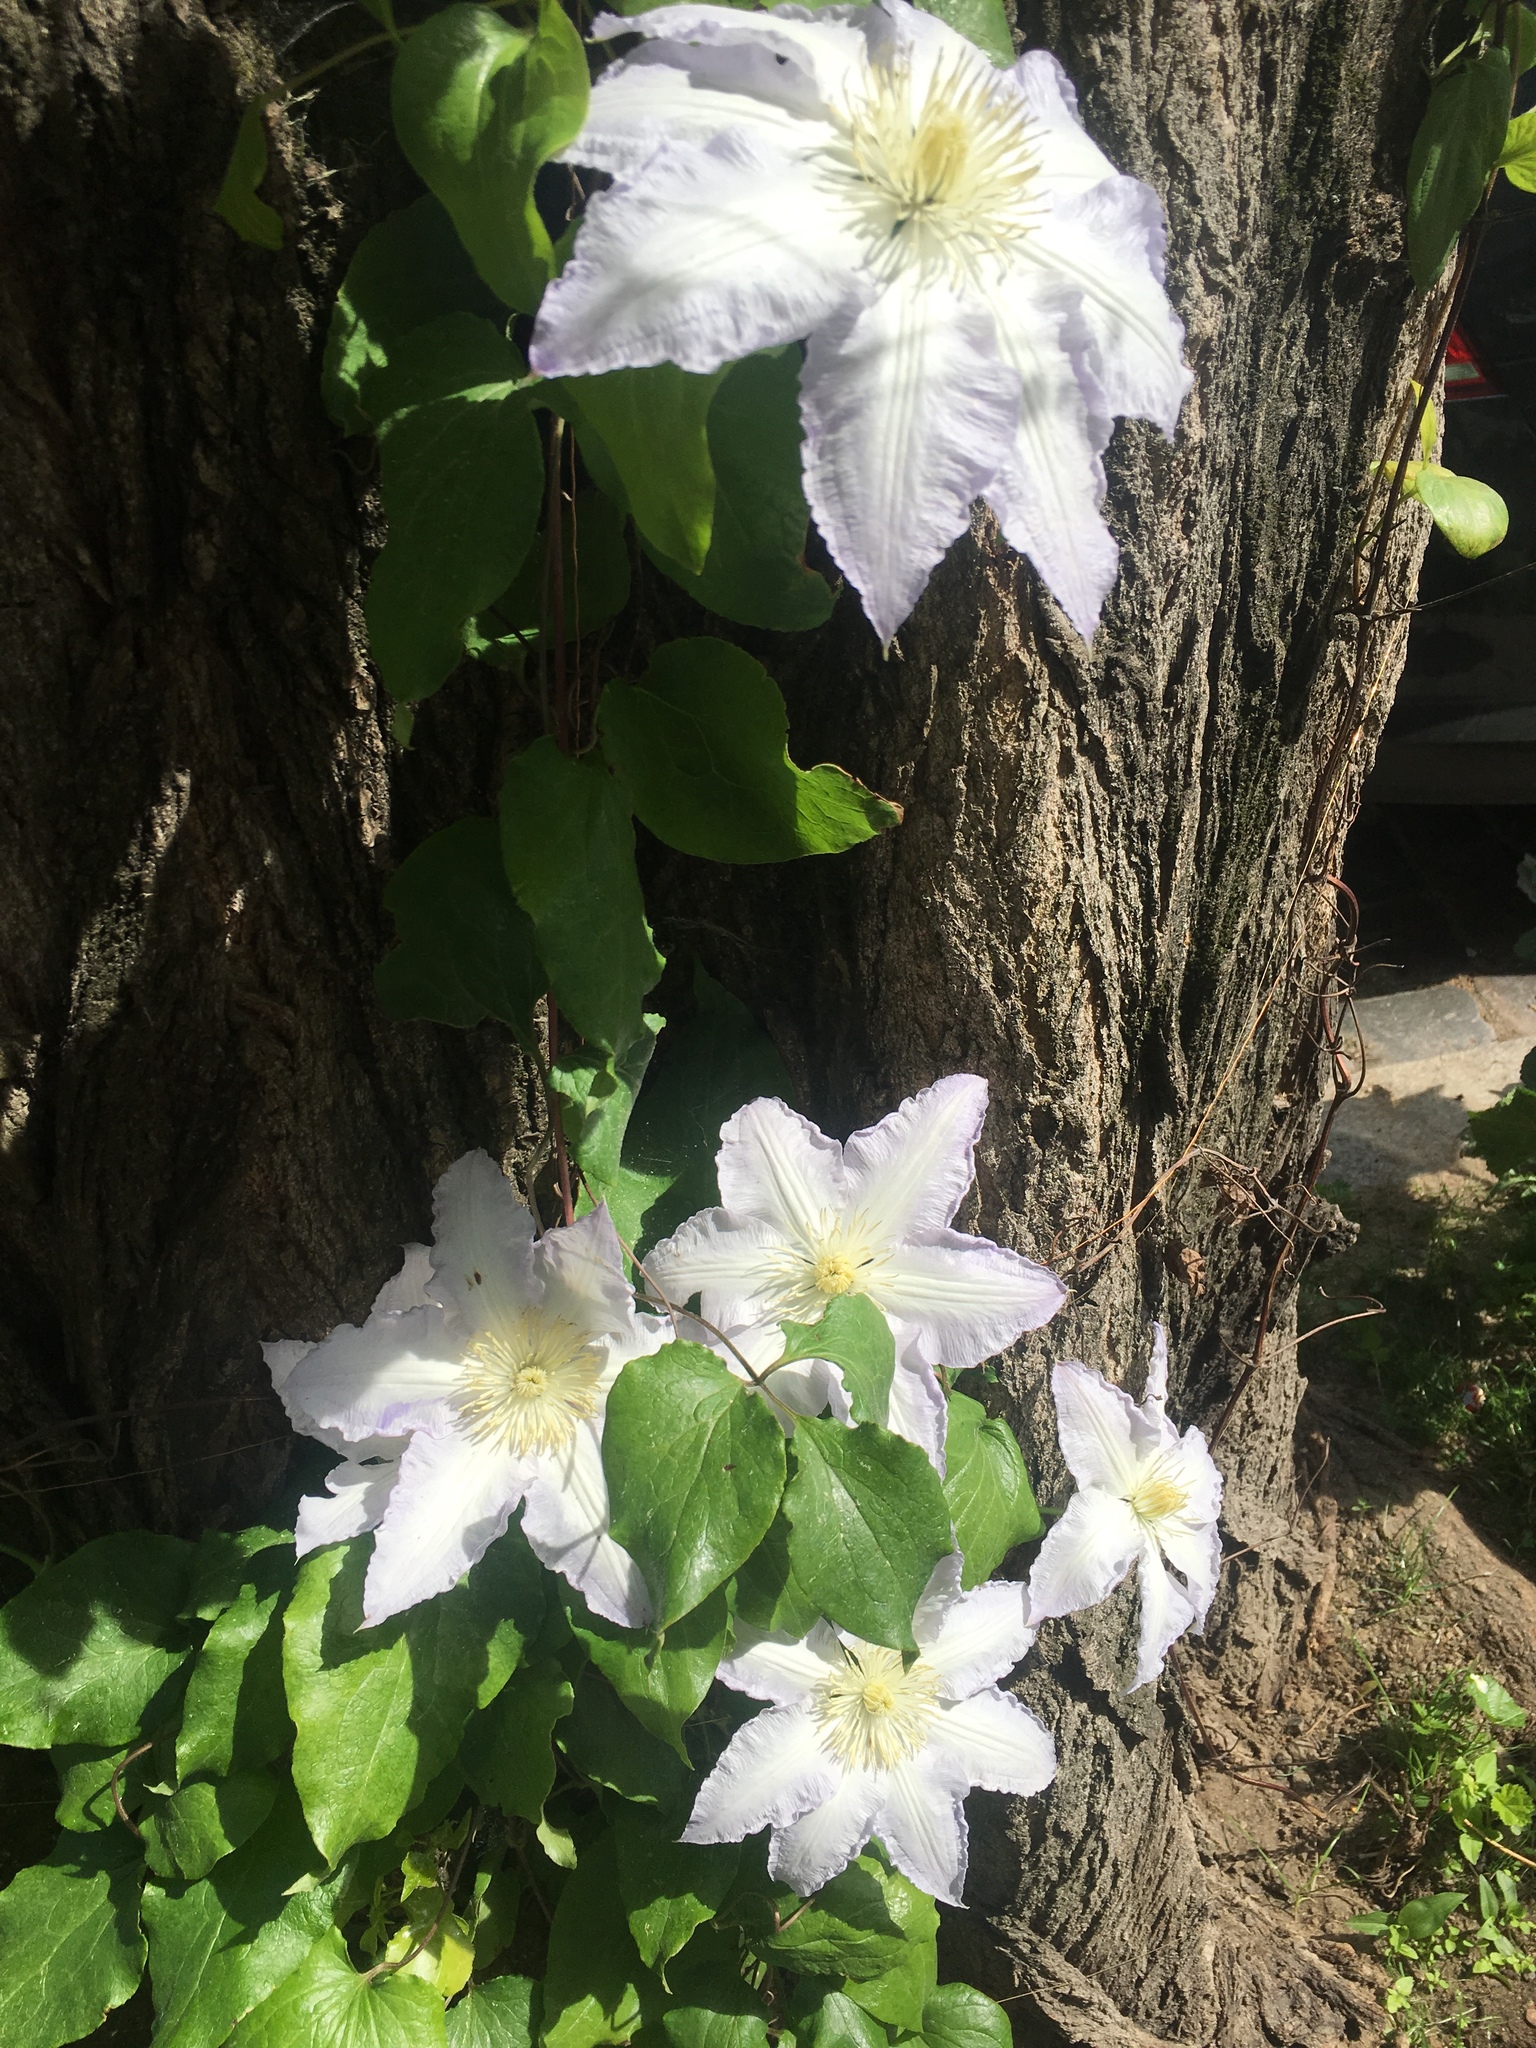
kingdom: Plantae
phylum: Tracheophyta
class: Magnoliopsida
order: Ranunculales
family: Ranunculaceae
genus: Clematis
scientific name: Clematis vitalba
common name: Evergreen clematis
